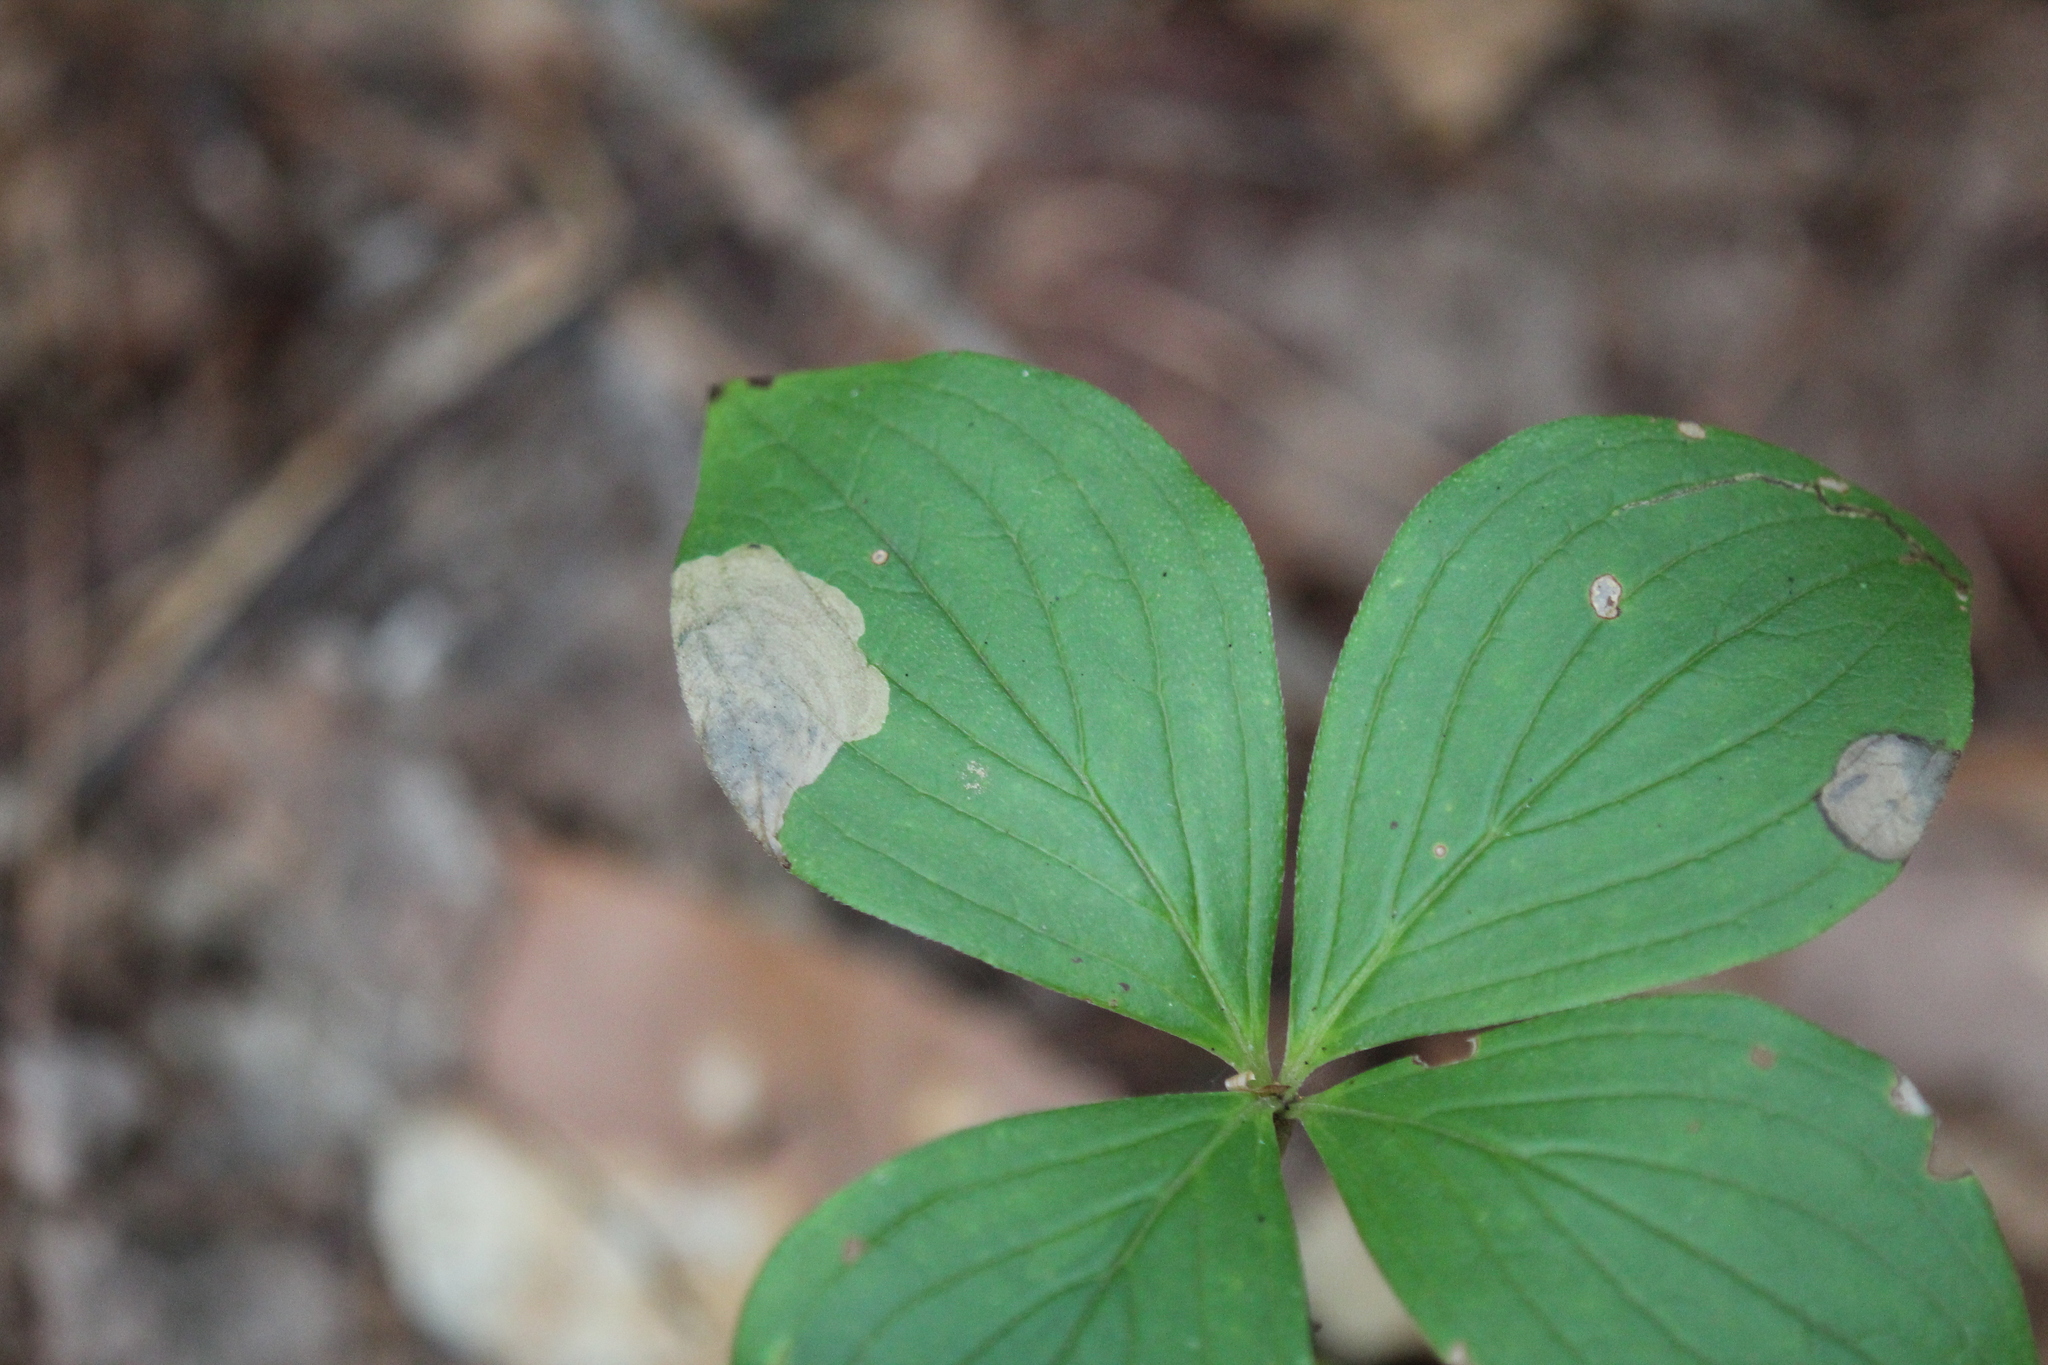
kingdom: Plantae
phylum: Tracheophyta
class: Magnoliopsida
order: Cornales
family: Cornaceae
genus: Cornus
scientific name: Cornus canadensis
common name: Creeping dogwood
